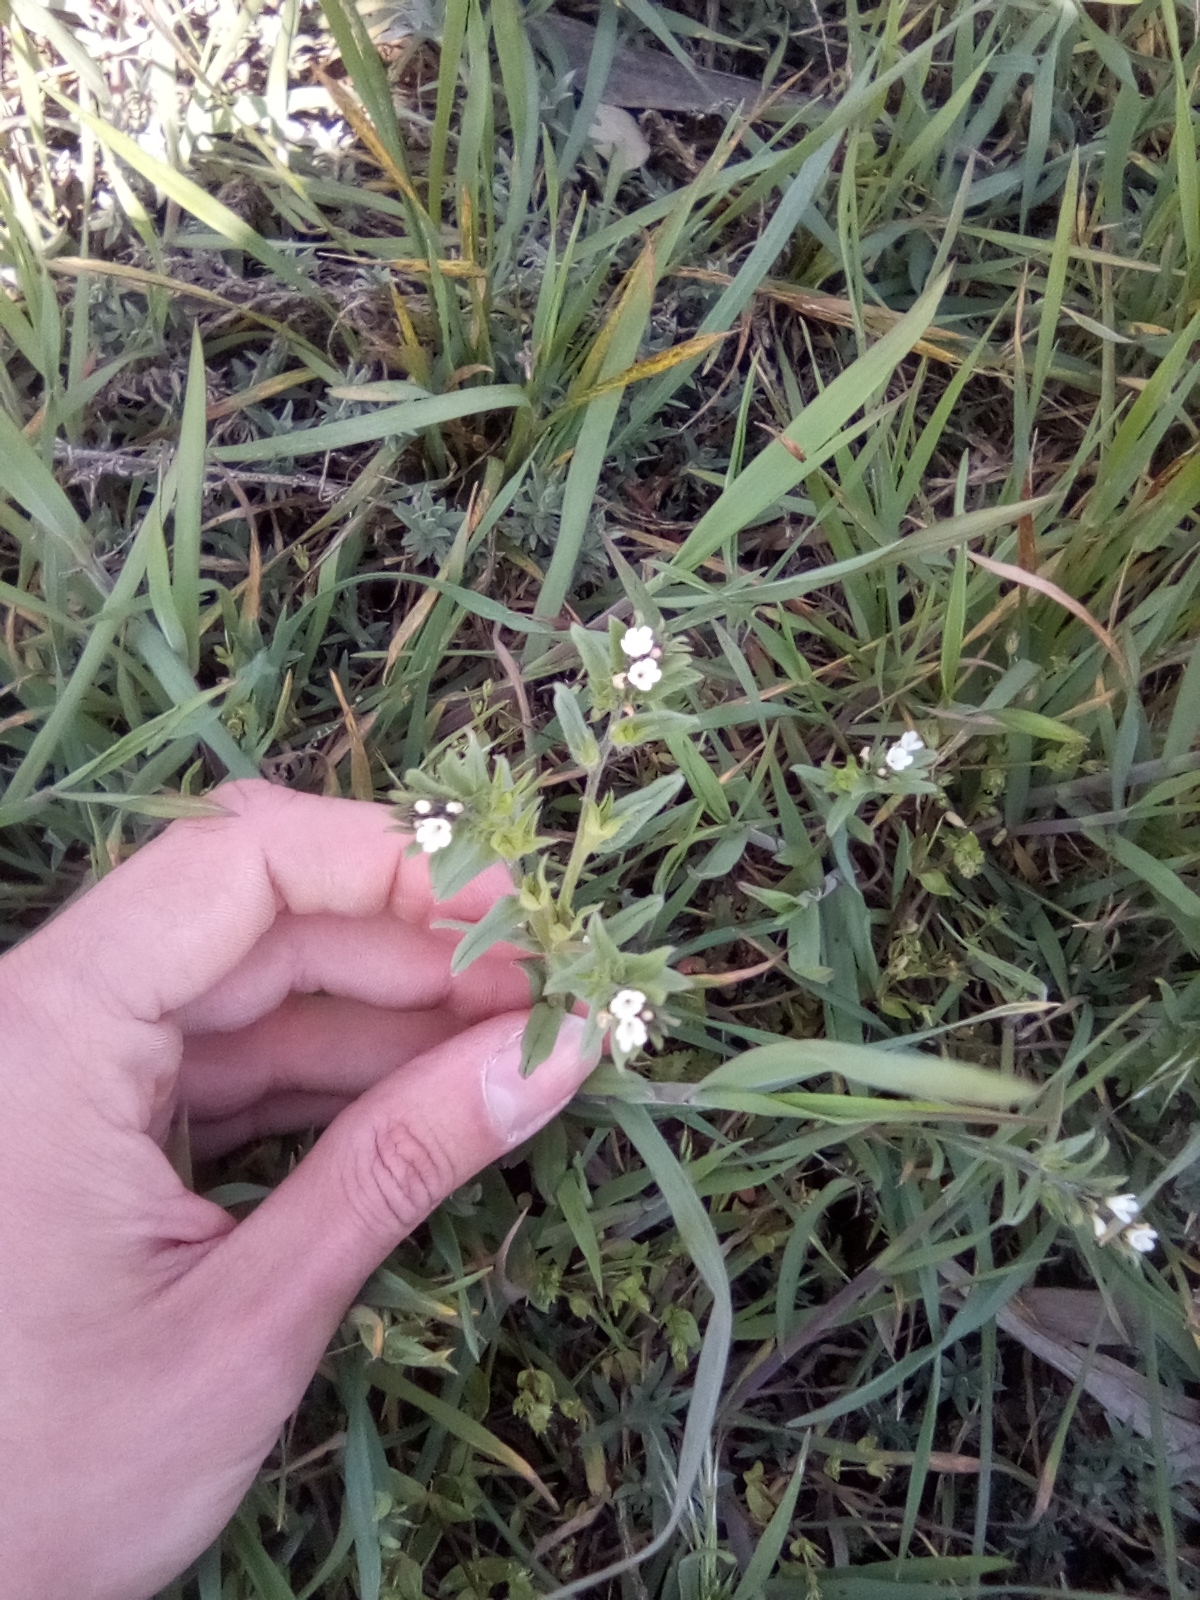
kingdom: Plantae
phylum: Tracheophyta
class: Magnoliopsida
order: Boraginales
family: Boraginaceae
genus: Buglossoides
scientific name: Buglossoides arvensis
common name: Corn gromwell
